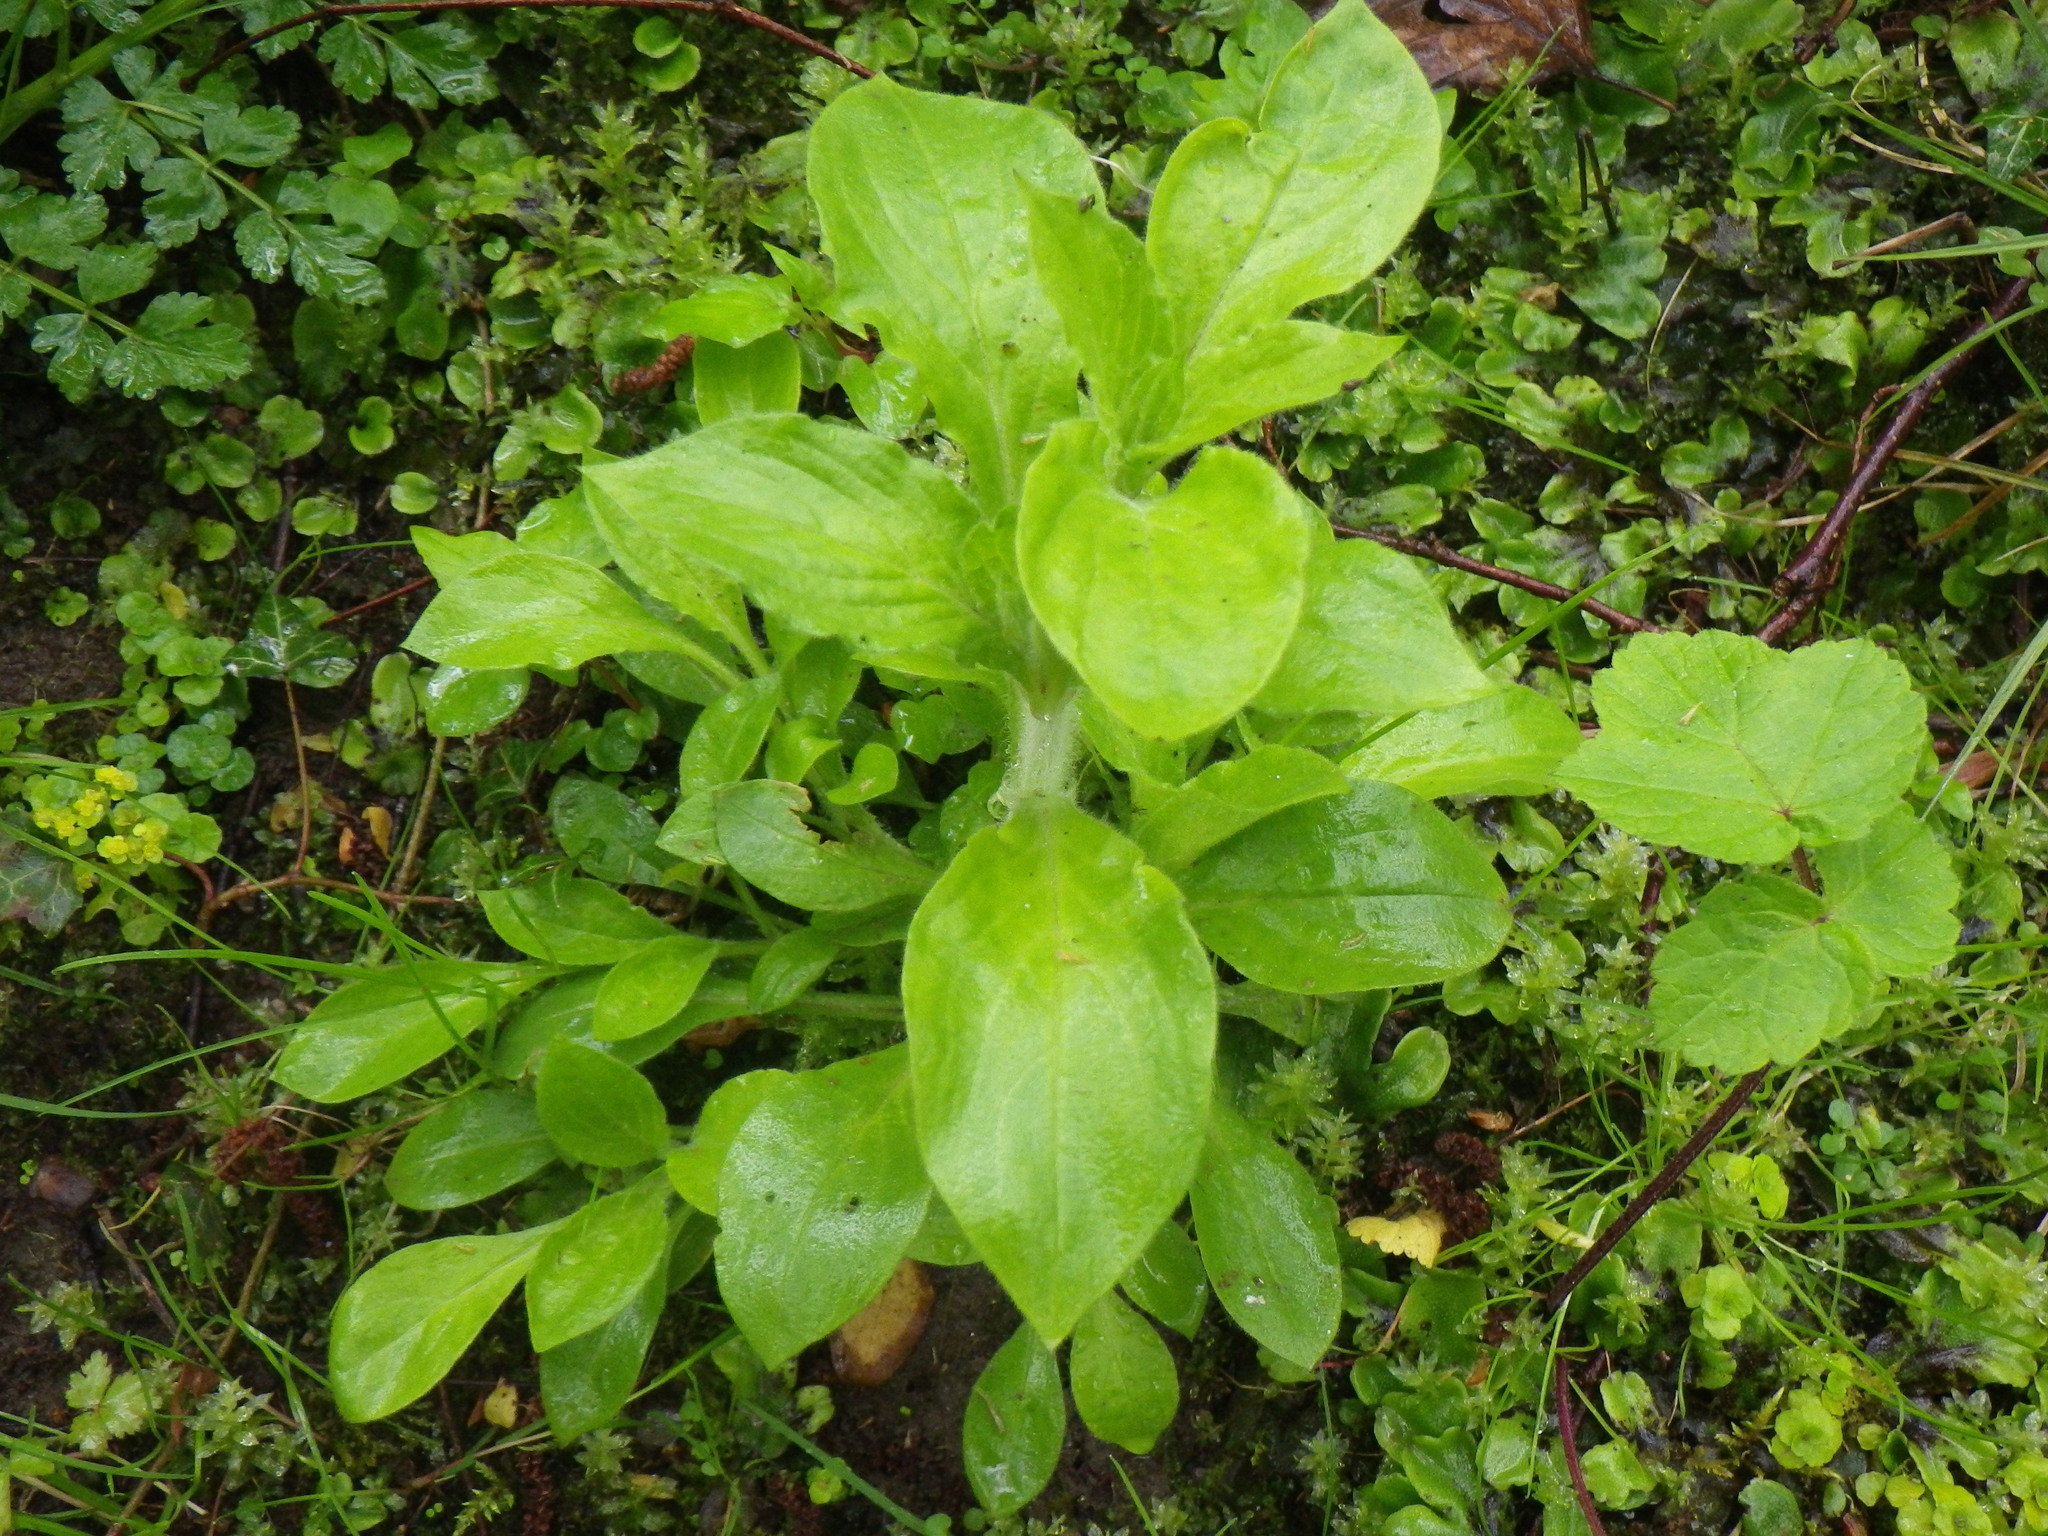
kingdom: Plantae
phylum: Tracheophyta
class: Magnoliopsida
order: Caryophyllales
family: Caryophyllaceae
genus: Silene
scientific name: Silene dioica
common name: Red campion
